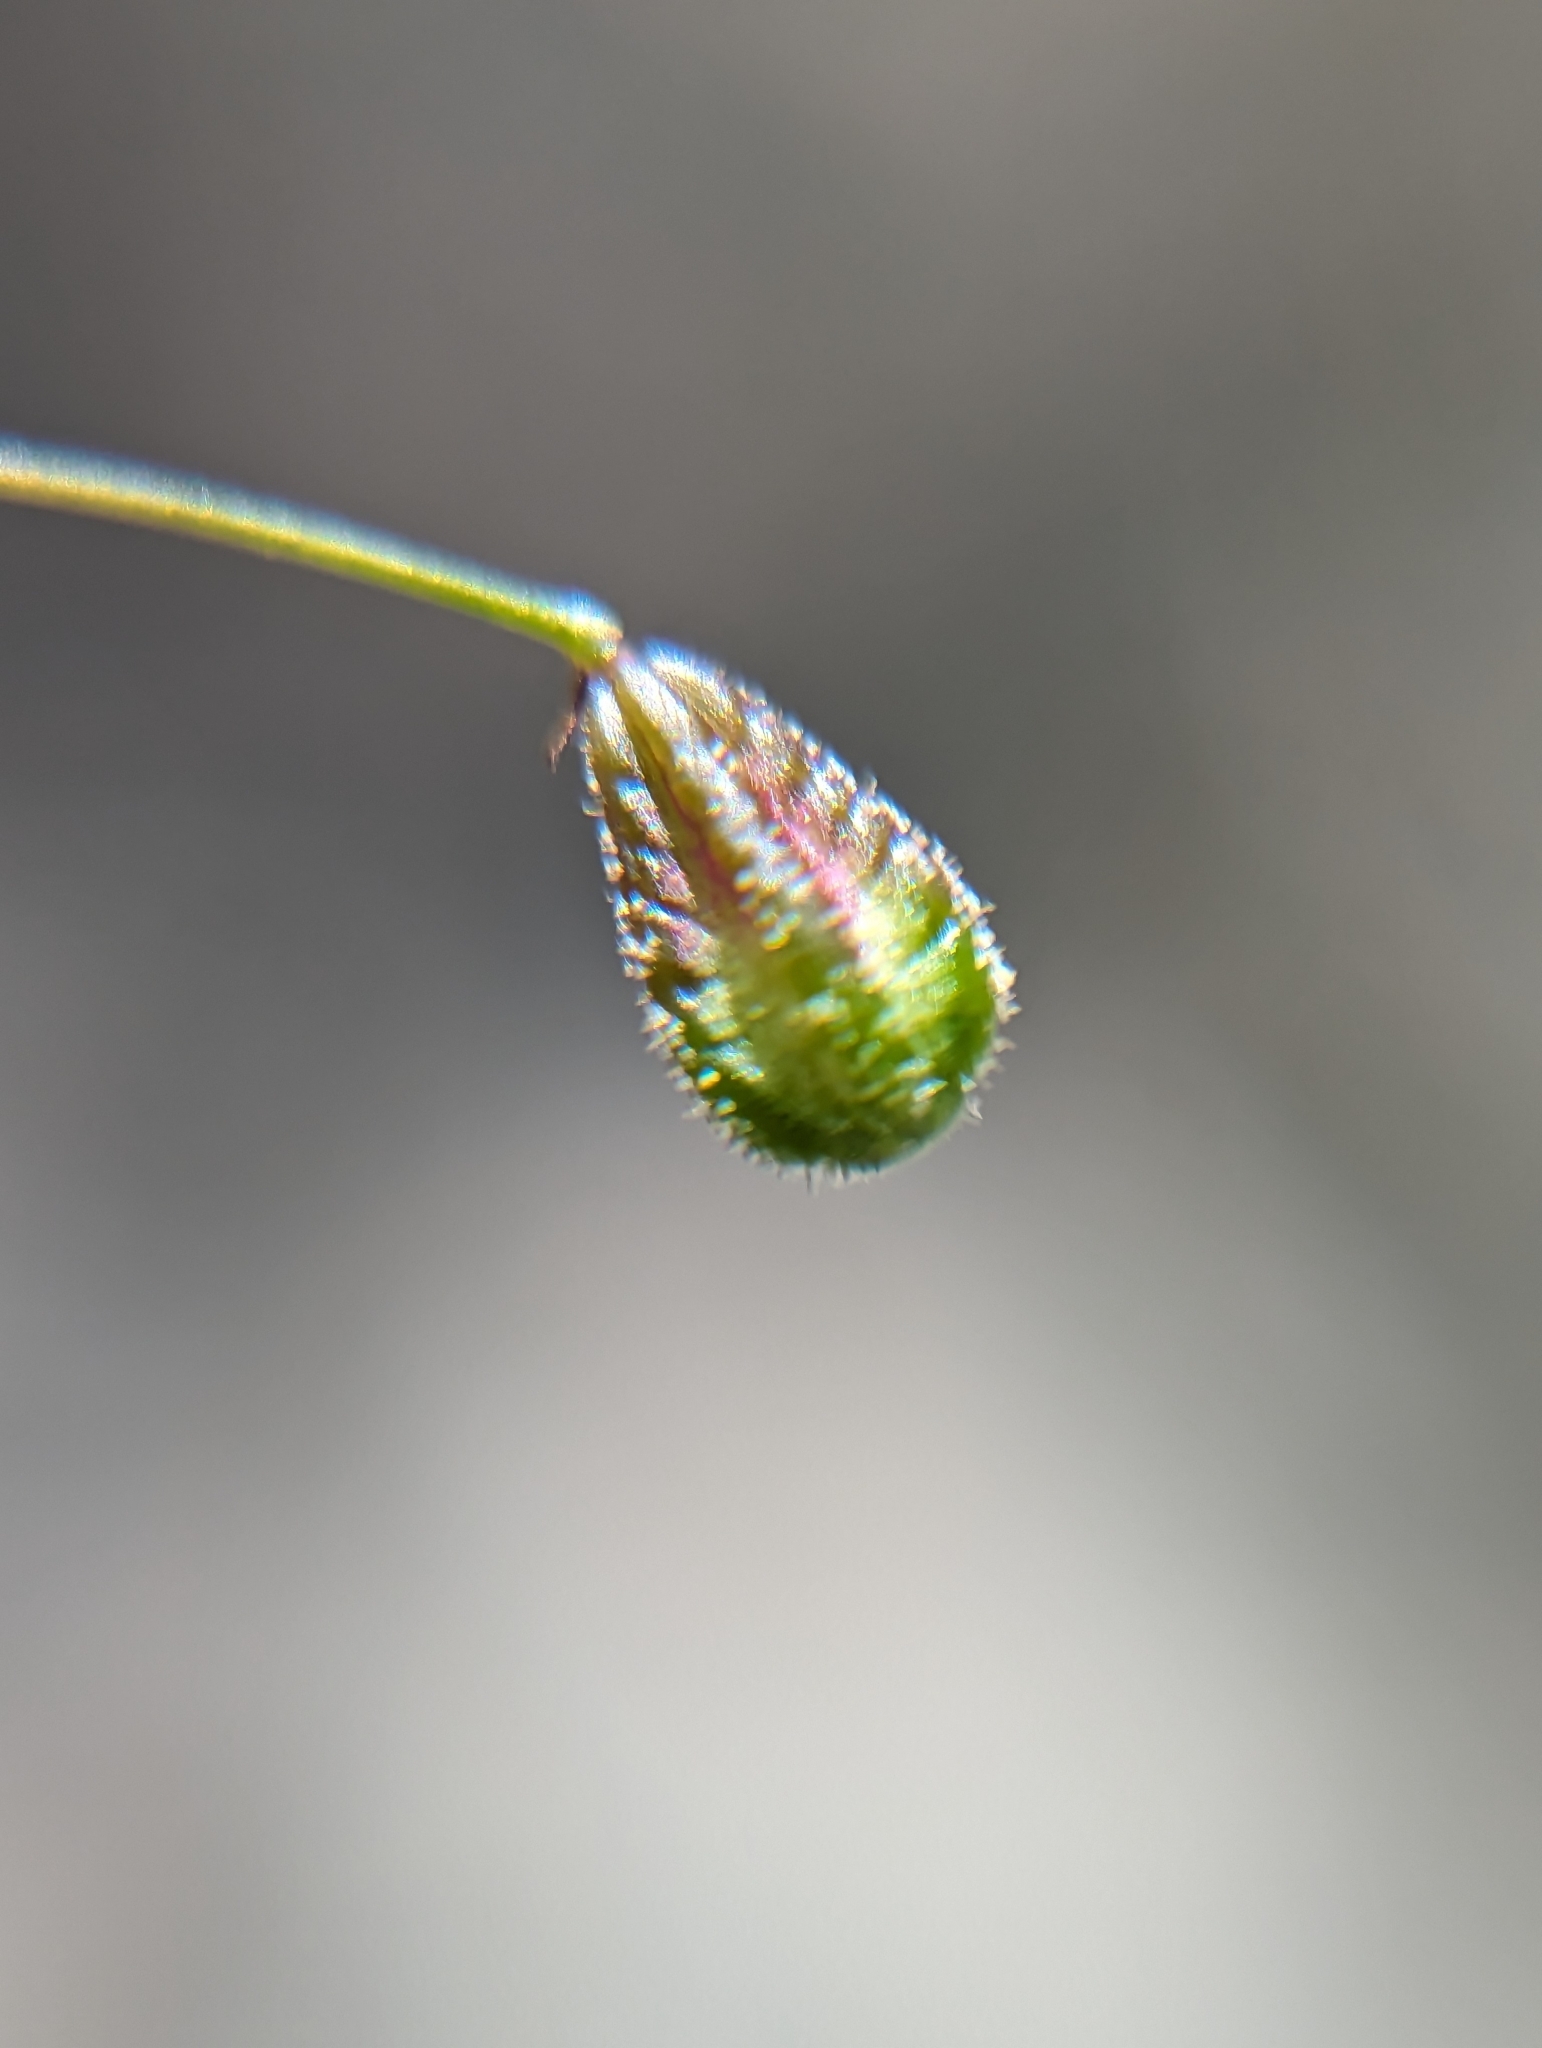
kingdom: Plantae
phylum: Tracheophyta
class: Magnoliopsida
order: Caryophyllales
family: Nyctaginaceae
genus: Boerhavia
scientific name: Boerhavia gracillima
